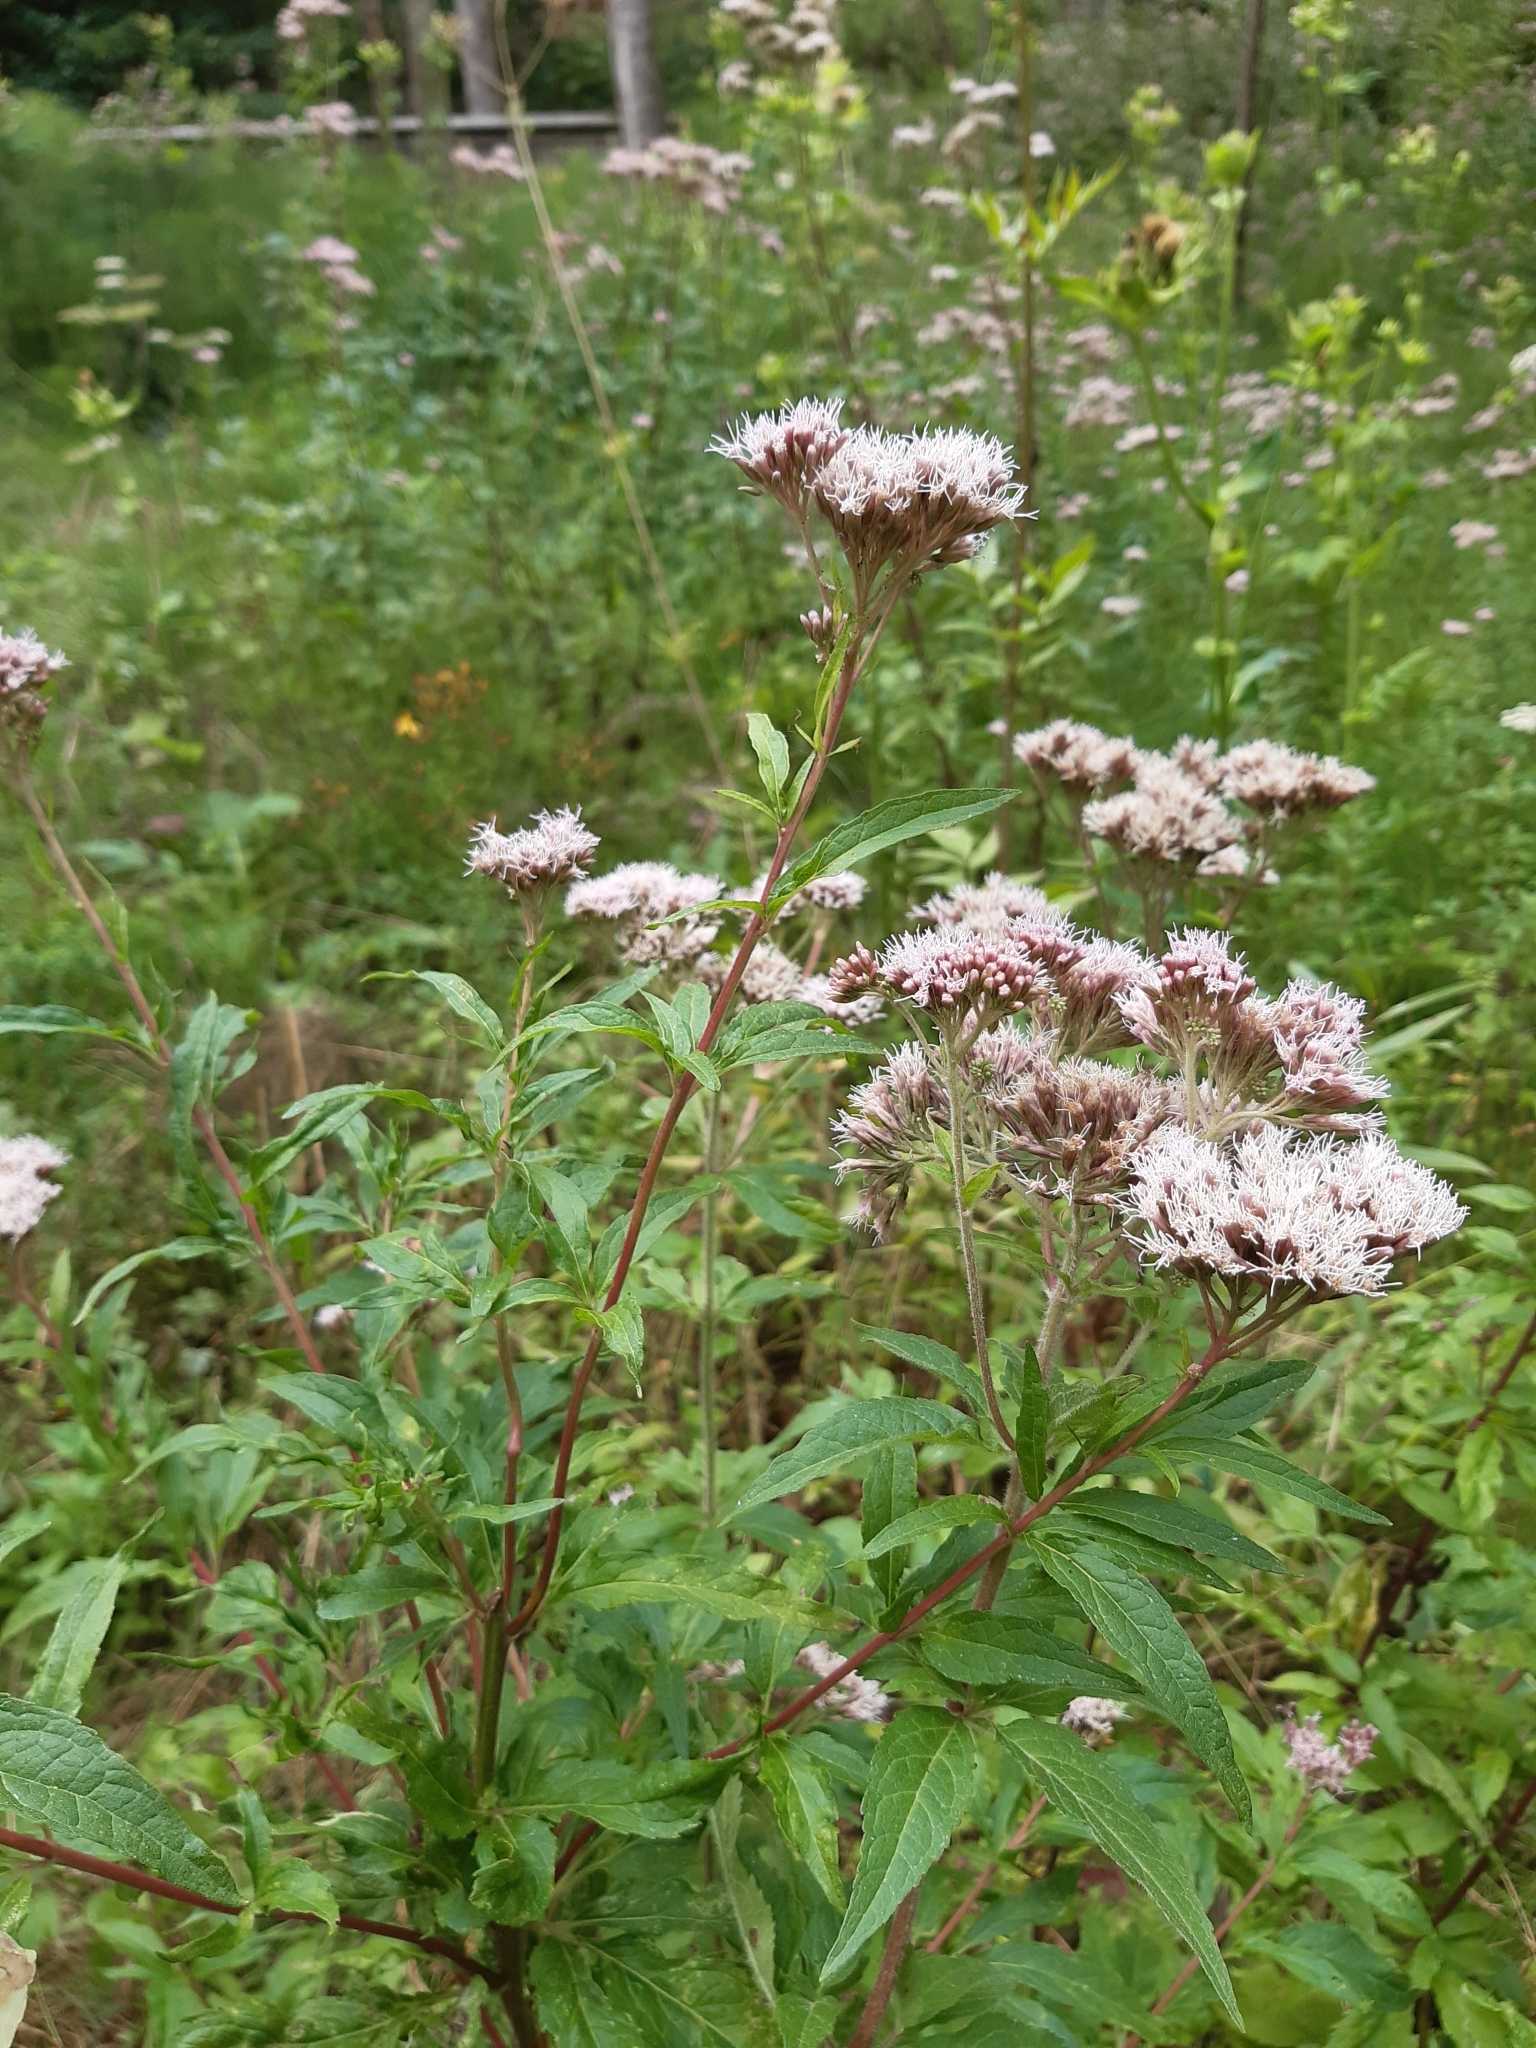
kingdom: Plantae
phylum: Tracheophyta
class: Magnoliopsida
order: Asterales
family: Asteraceae
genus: Eupatorium
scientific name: Eupatorium cannabinum
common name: Hemp-agrimony
